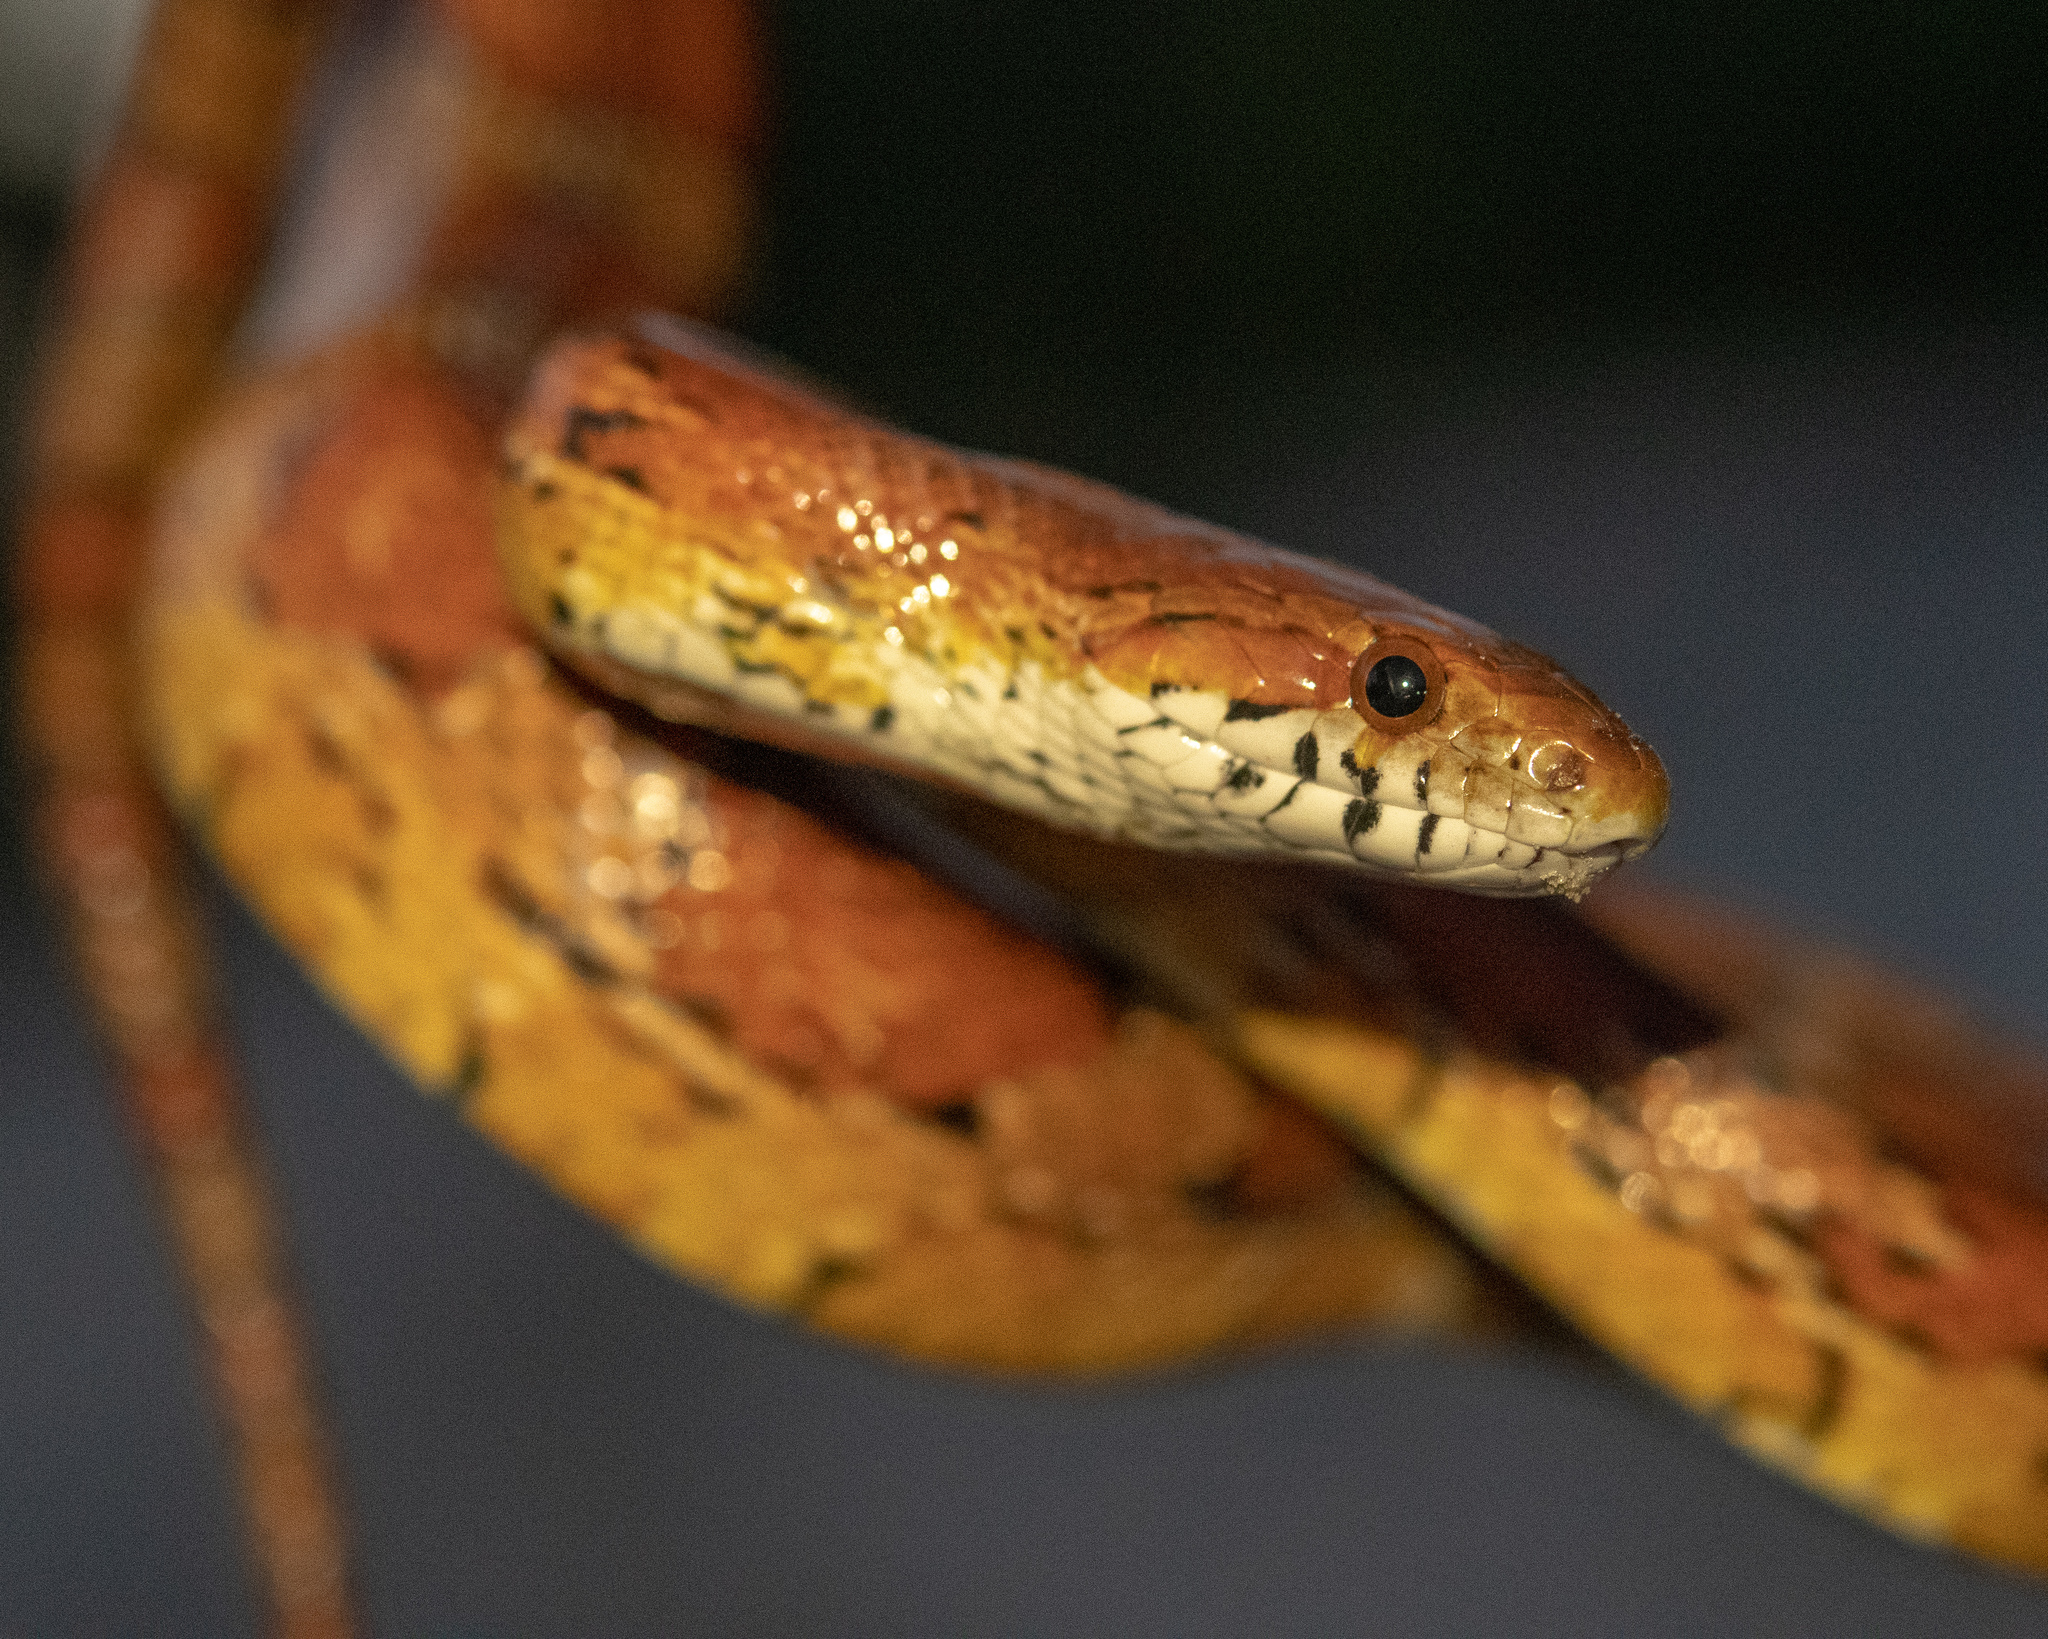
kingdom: Animalia
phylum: Chordata
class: Squamata
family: Colubridae
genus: Pantherophis
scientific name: Pantherophis guttatus
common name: Red cornsnake
